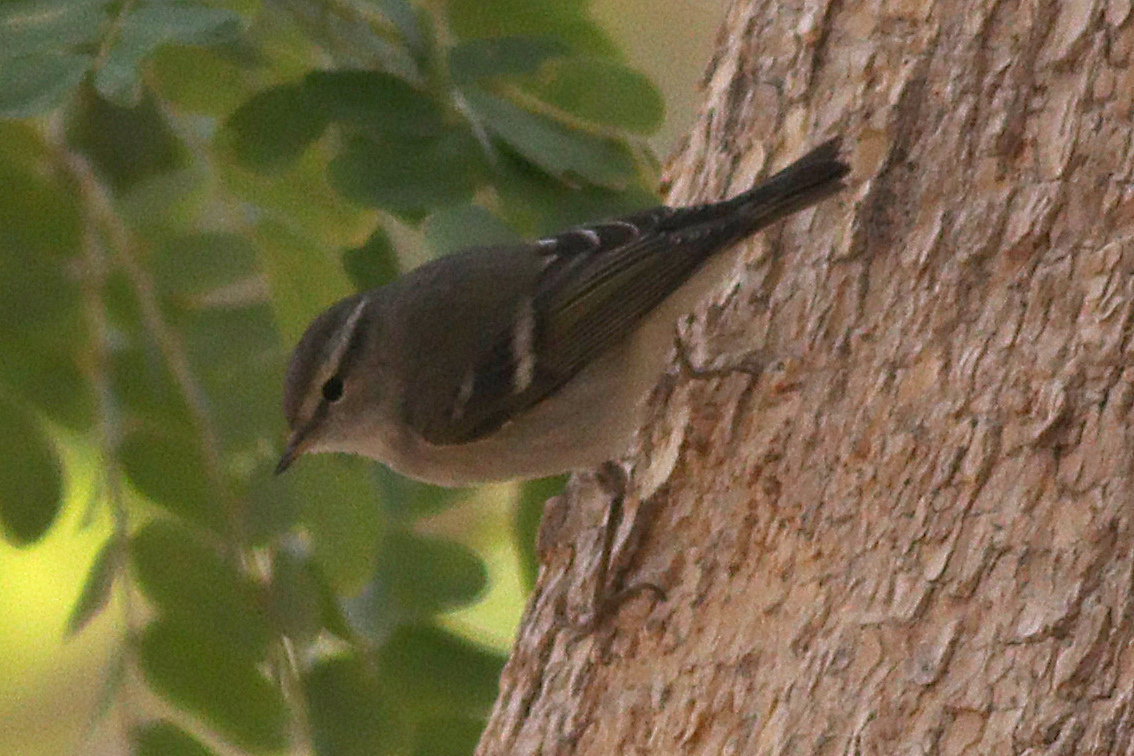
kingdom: Animalia
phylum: Chordata
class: Aves
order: Passeriformes
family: Phylloscopidae
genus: Phylloscopus
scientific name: Phylloscopus humei
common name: Hume's leaf warbler
